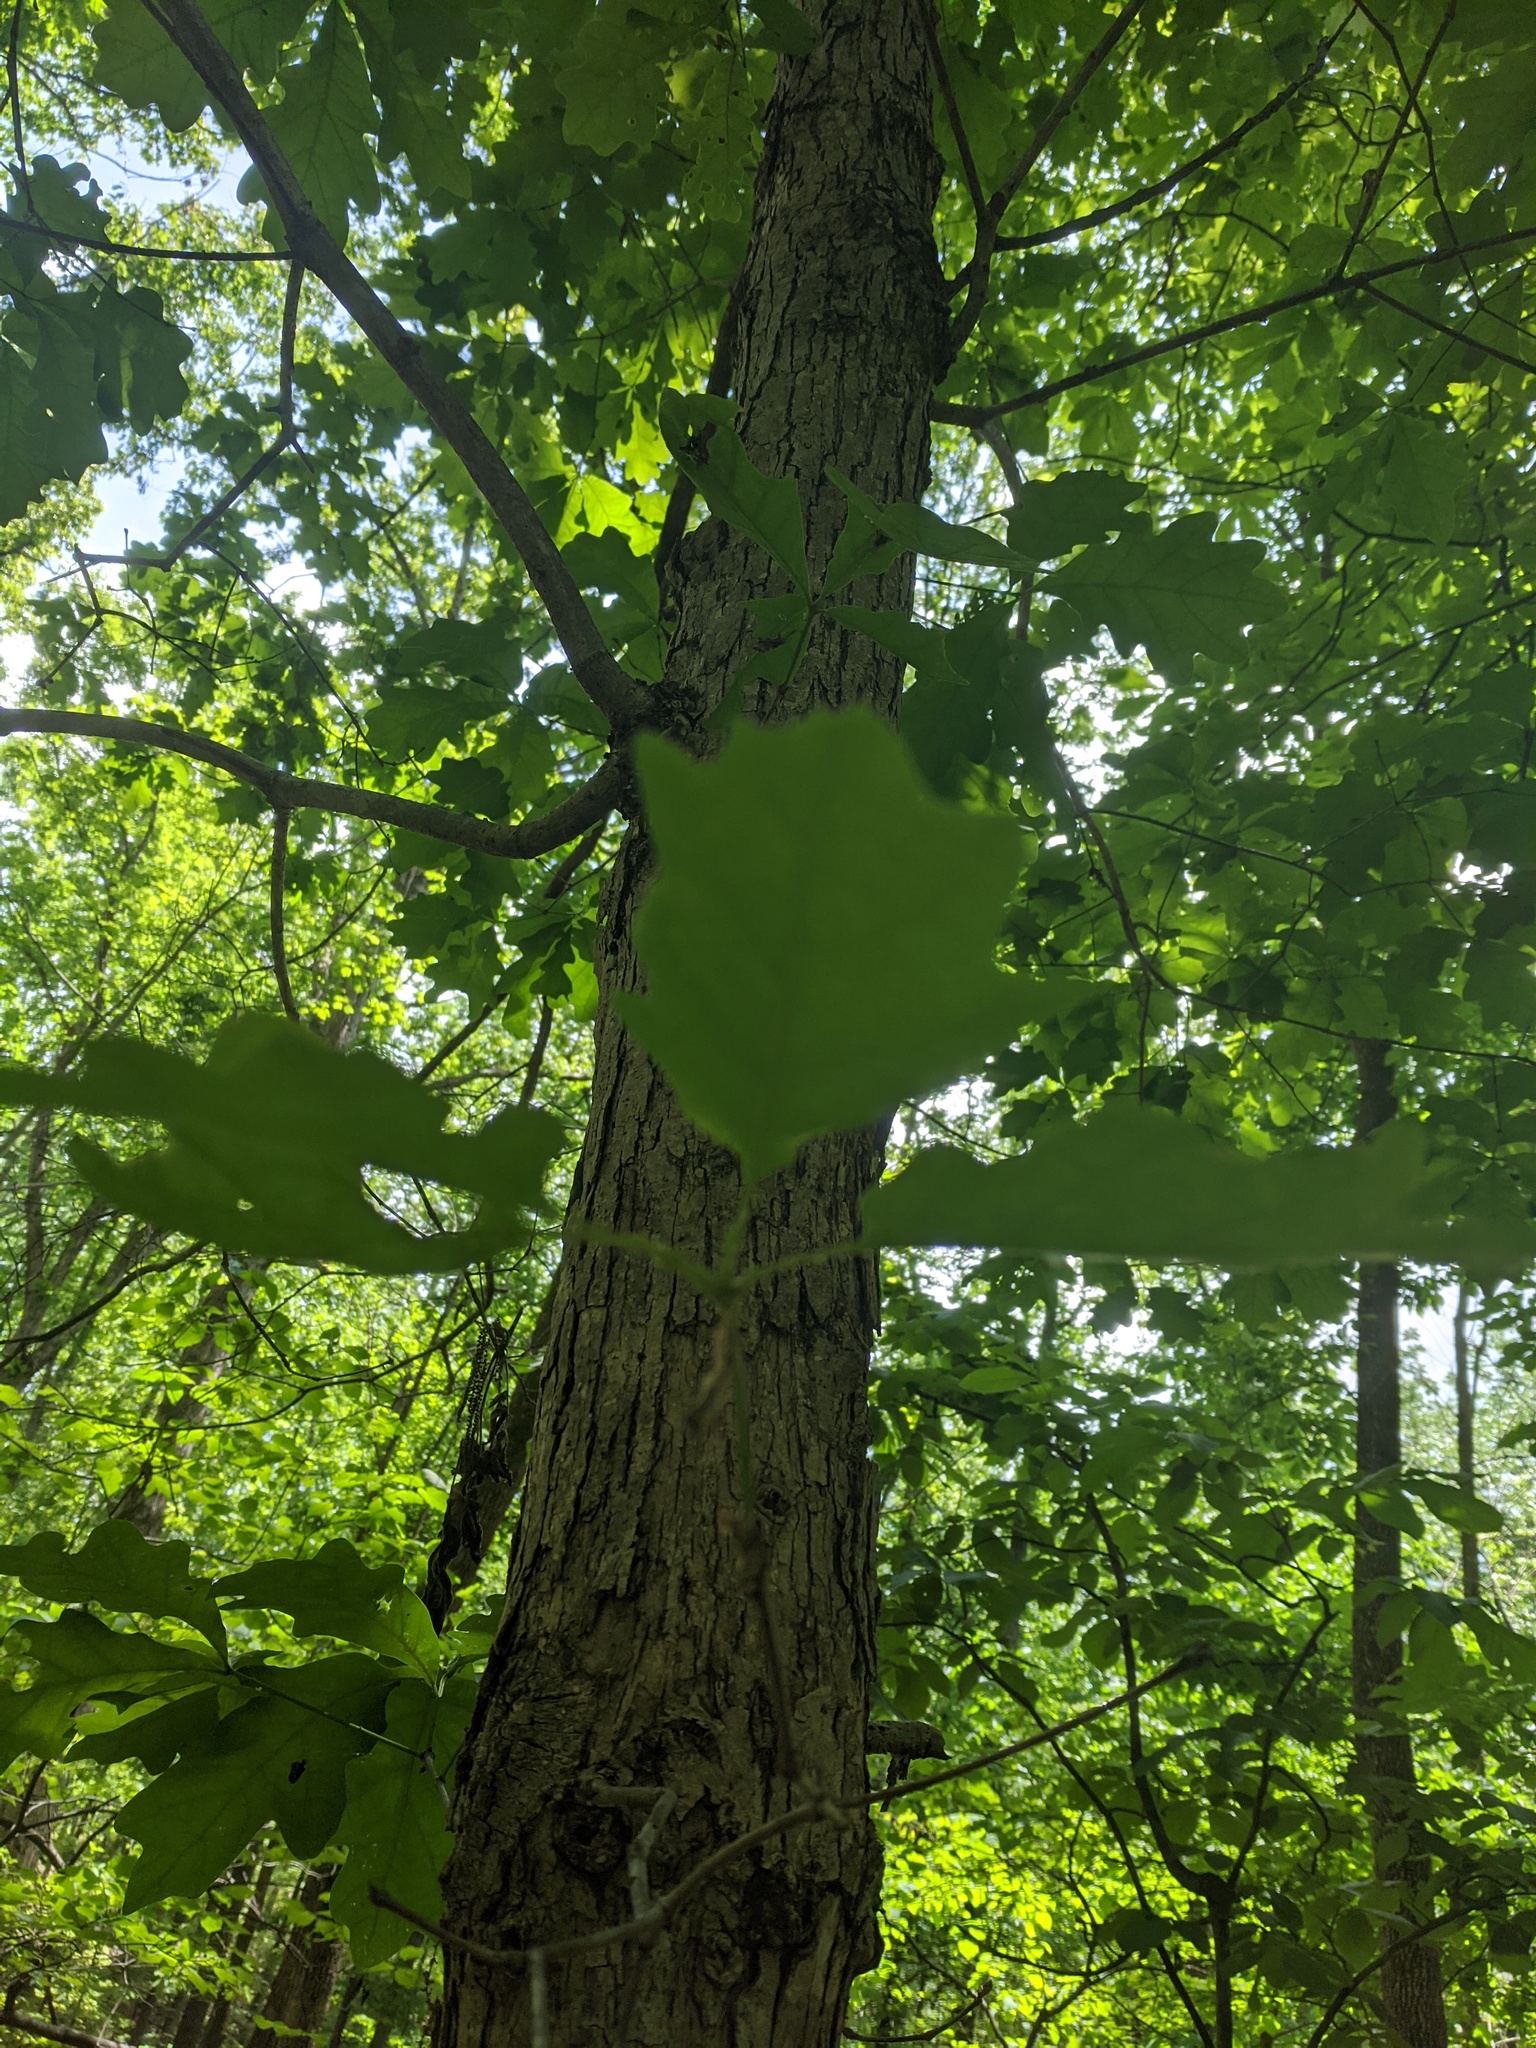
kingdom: Plantae
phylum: Tracheophyta
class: Magnoliopsida
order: Fagales
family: Fagaceae
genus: Quercus
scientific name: Quercus alba
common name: White oak
